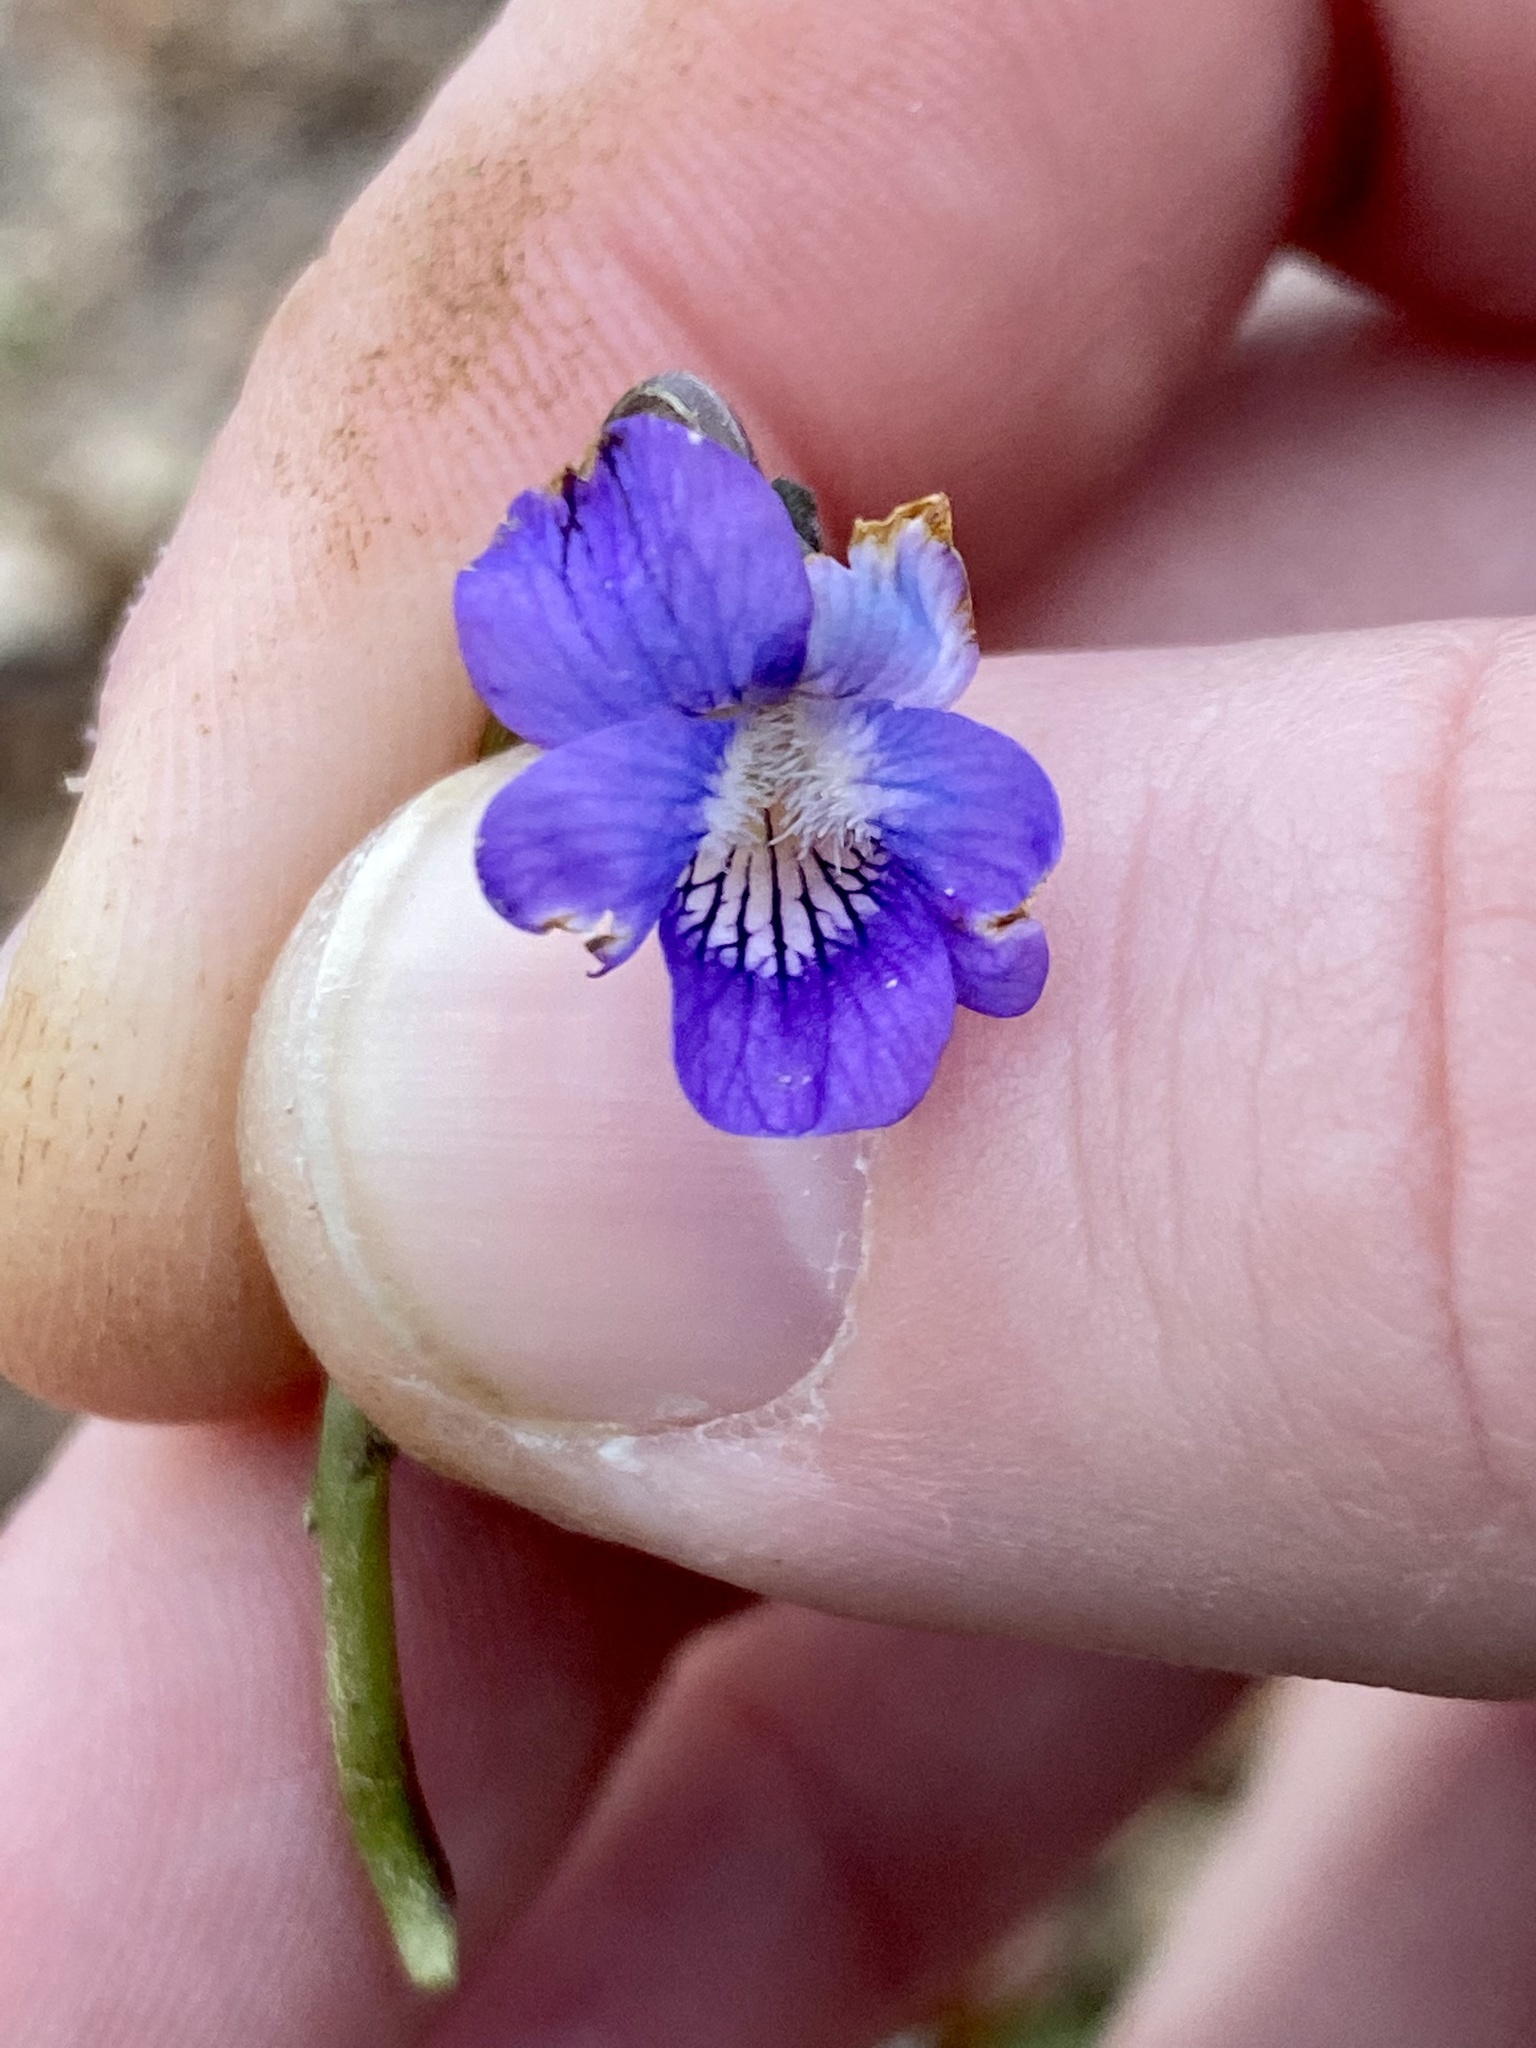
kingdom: Plantae
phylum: Tracheophyta
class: Magnoliopsida
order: Malpighiales
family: Violaceae
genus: Viola
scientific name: Viola hirsutula
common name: Southern wood violet
